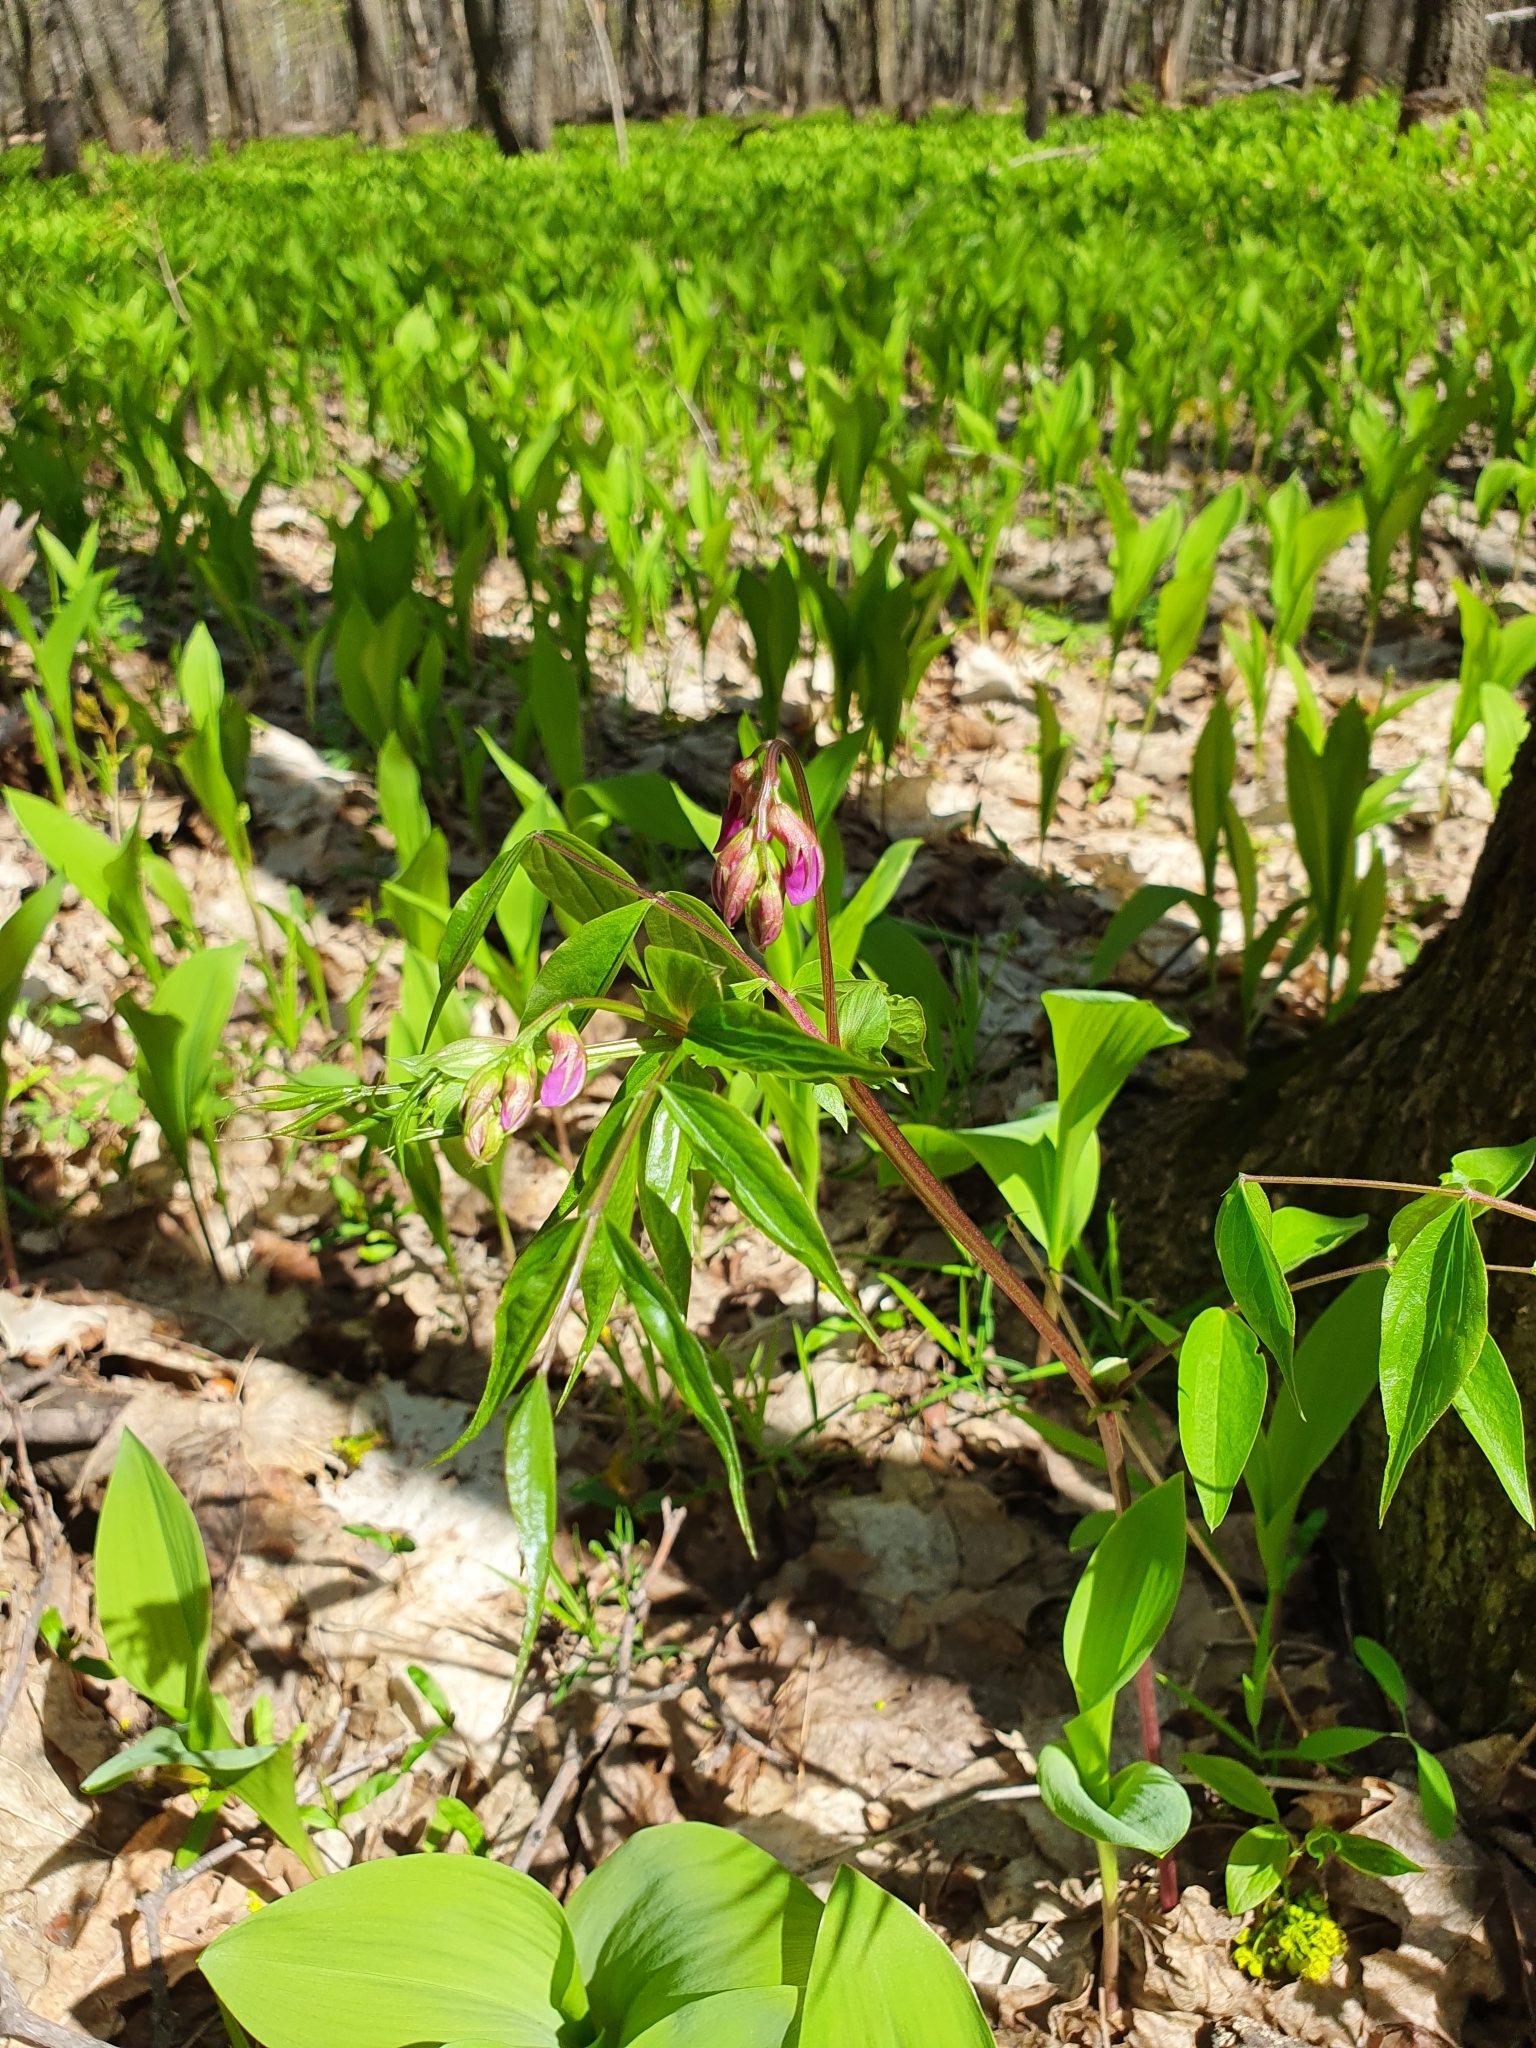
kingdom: Plantae
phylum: Tracheophyta
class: Magnoliopsida
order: Fabales
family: Fabaceae
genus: Lathyrus
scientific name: Lathyrus vernus
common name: Spring pea
